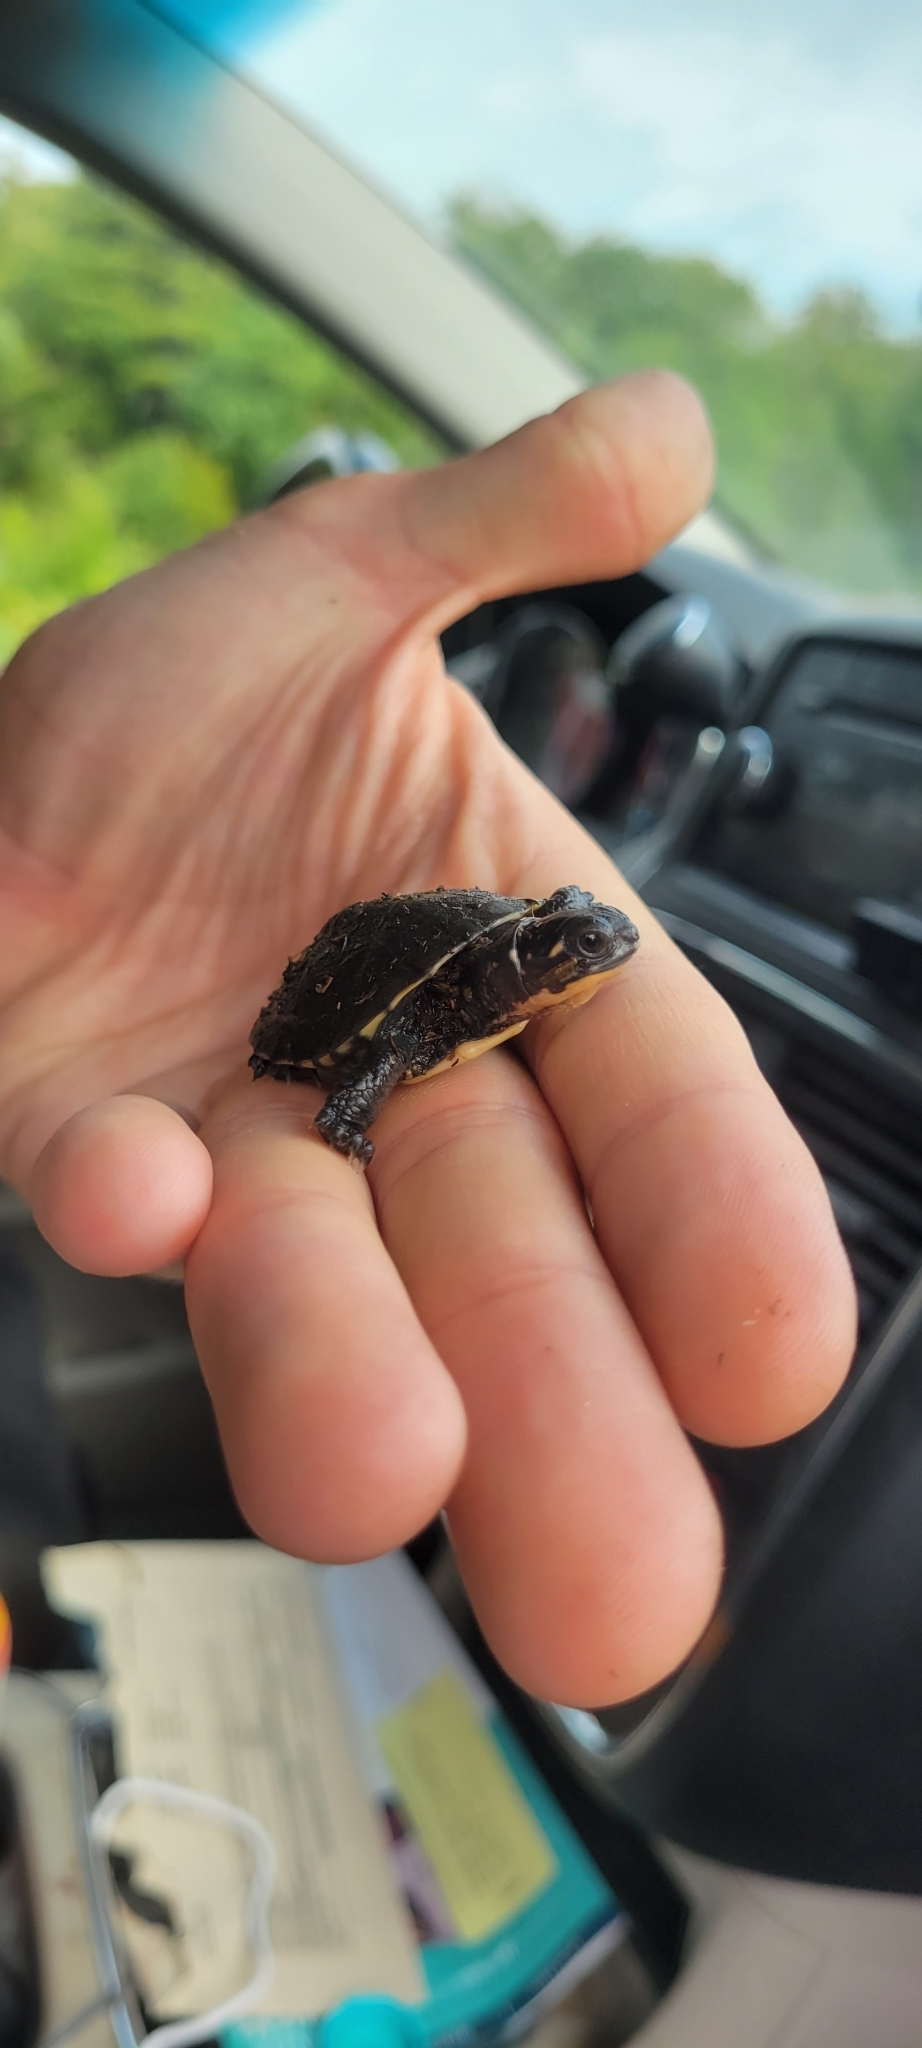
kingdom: Animalia
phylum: Chordata
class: Testudines
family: Emydidae
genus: Emys
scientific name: Emys blandingii
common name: Blanding's turtle
